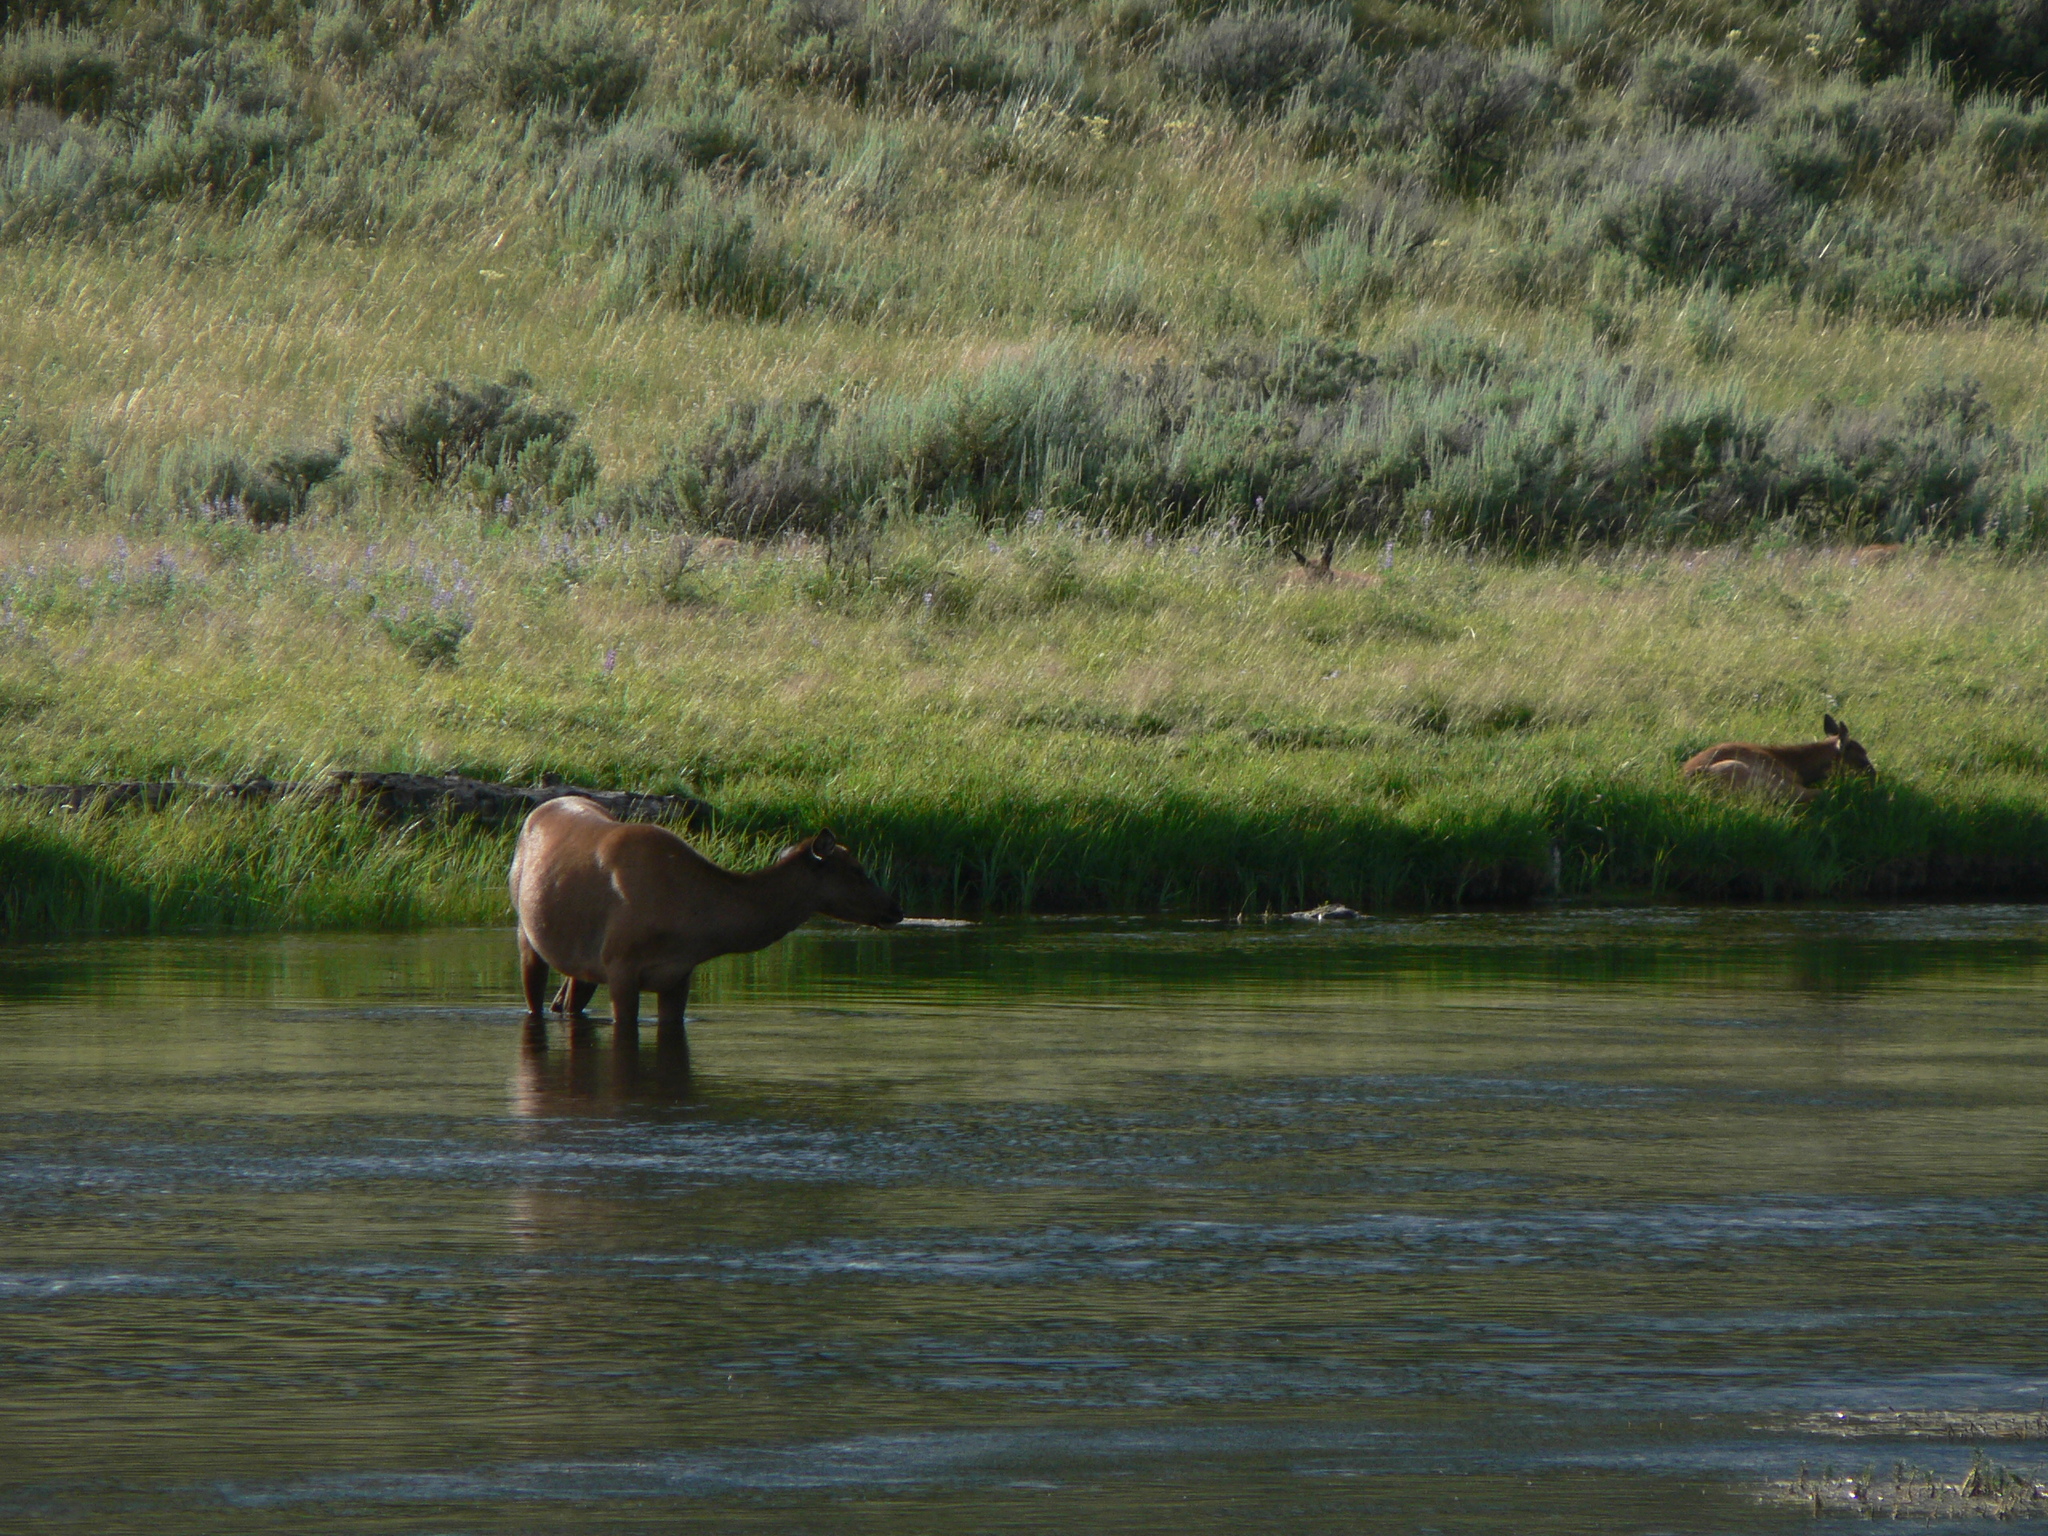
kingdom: Animalia
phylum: Chordata
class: Mammalia
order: Artiodactyla
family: Cervidae
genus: Cervus
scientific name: Cervus elaphus
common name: Red deer
